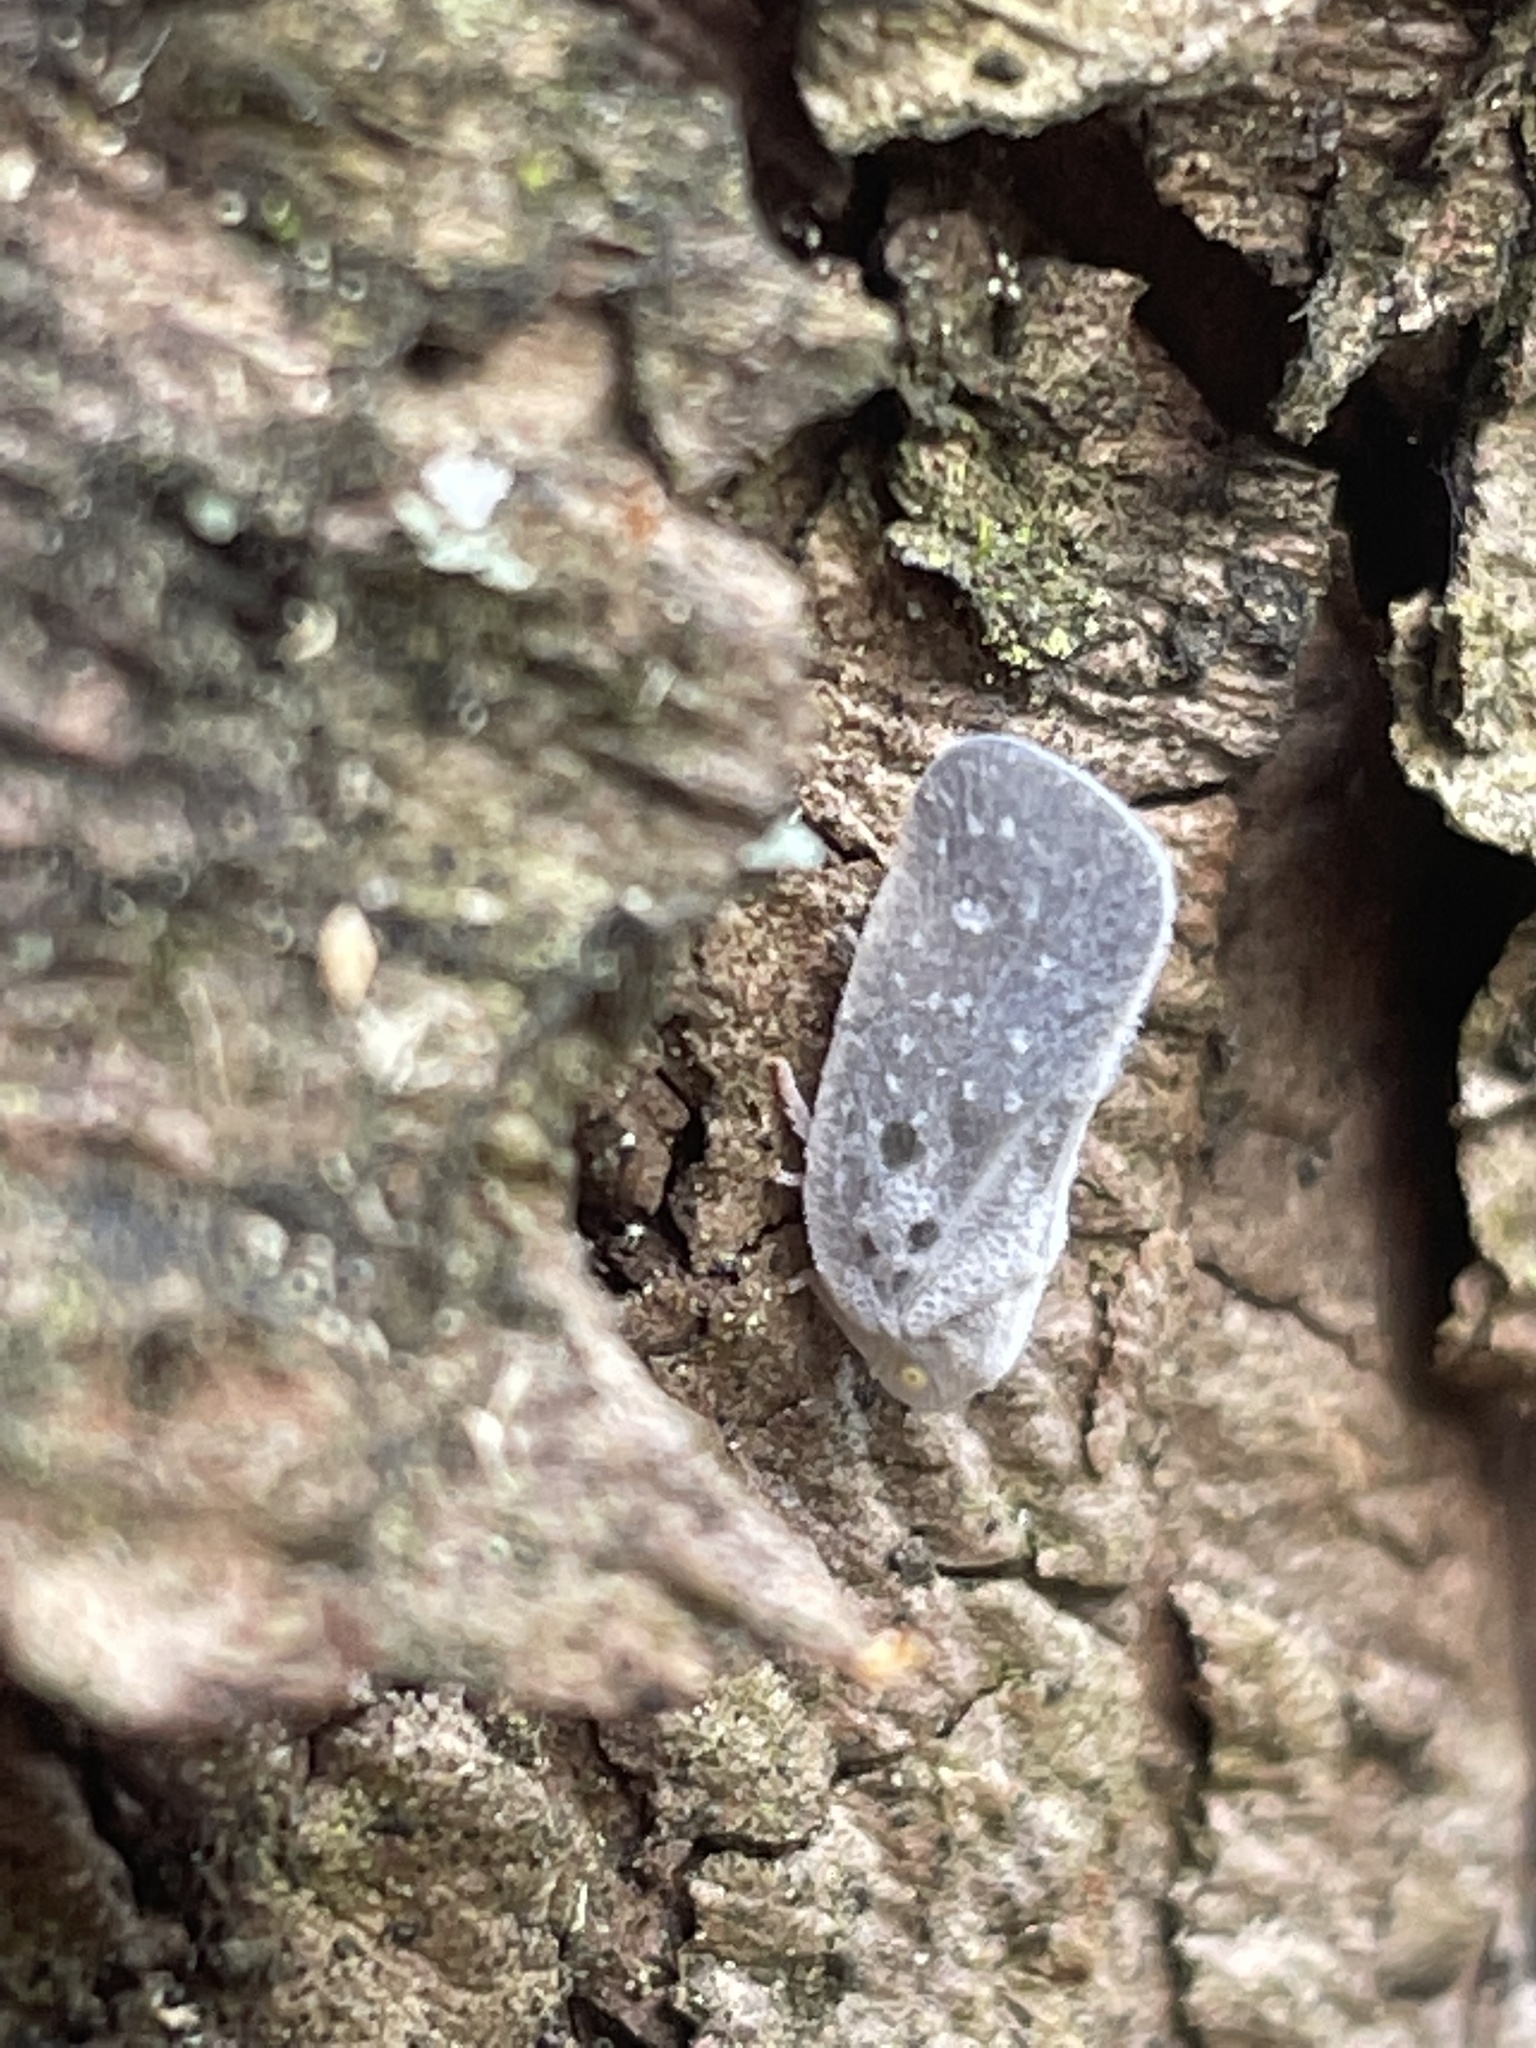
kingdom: Animalia
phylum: Arthropoda
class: Insecta
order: Hemiptera
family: Flatidae
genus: Metcalfa
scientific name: Metcalfa pruinosa
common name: Citrus flatid planthopper
